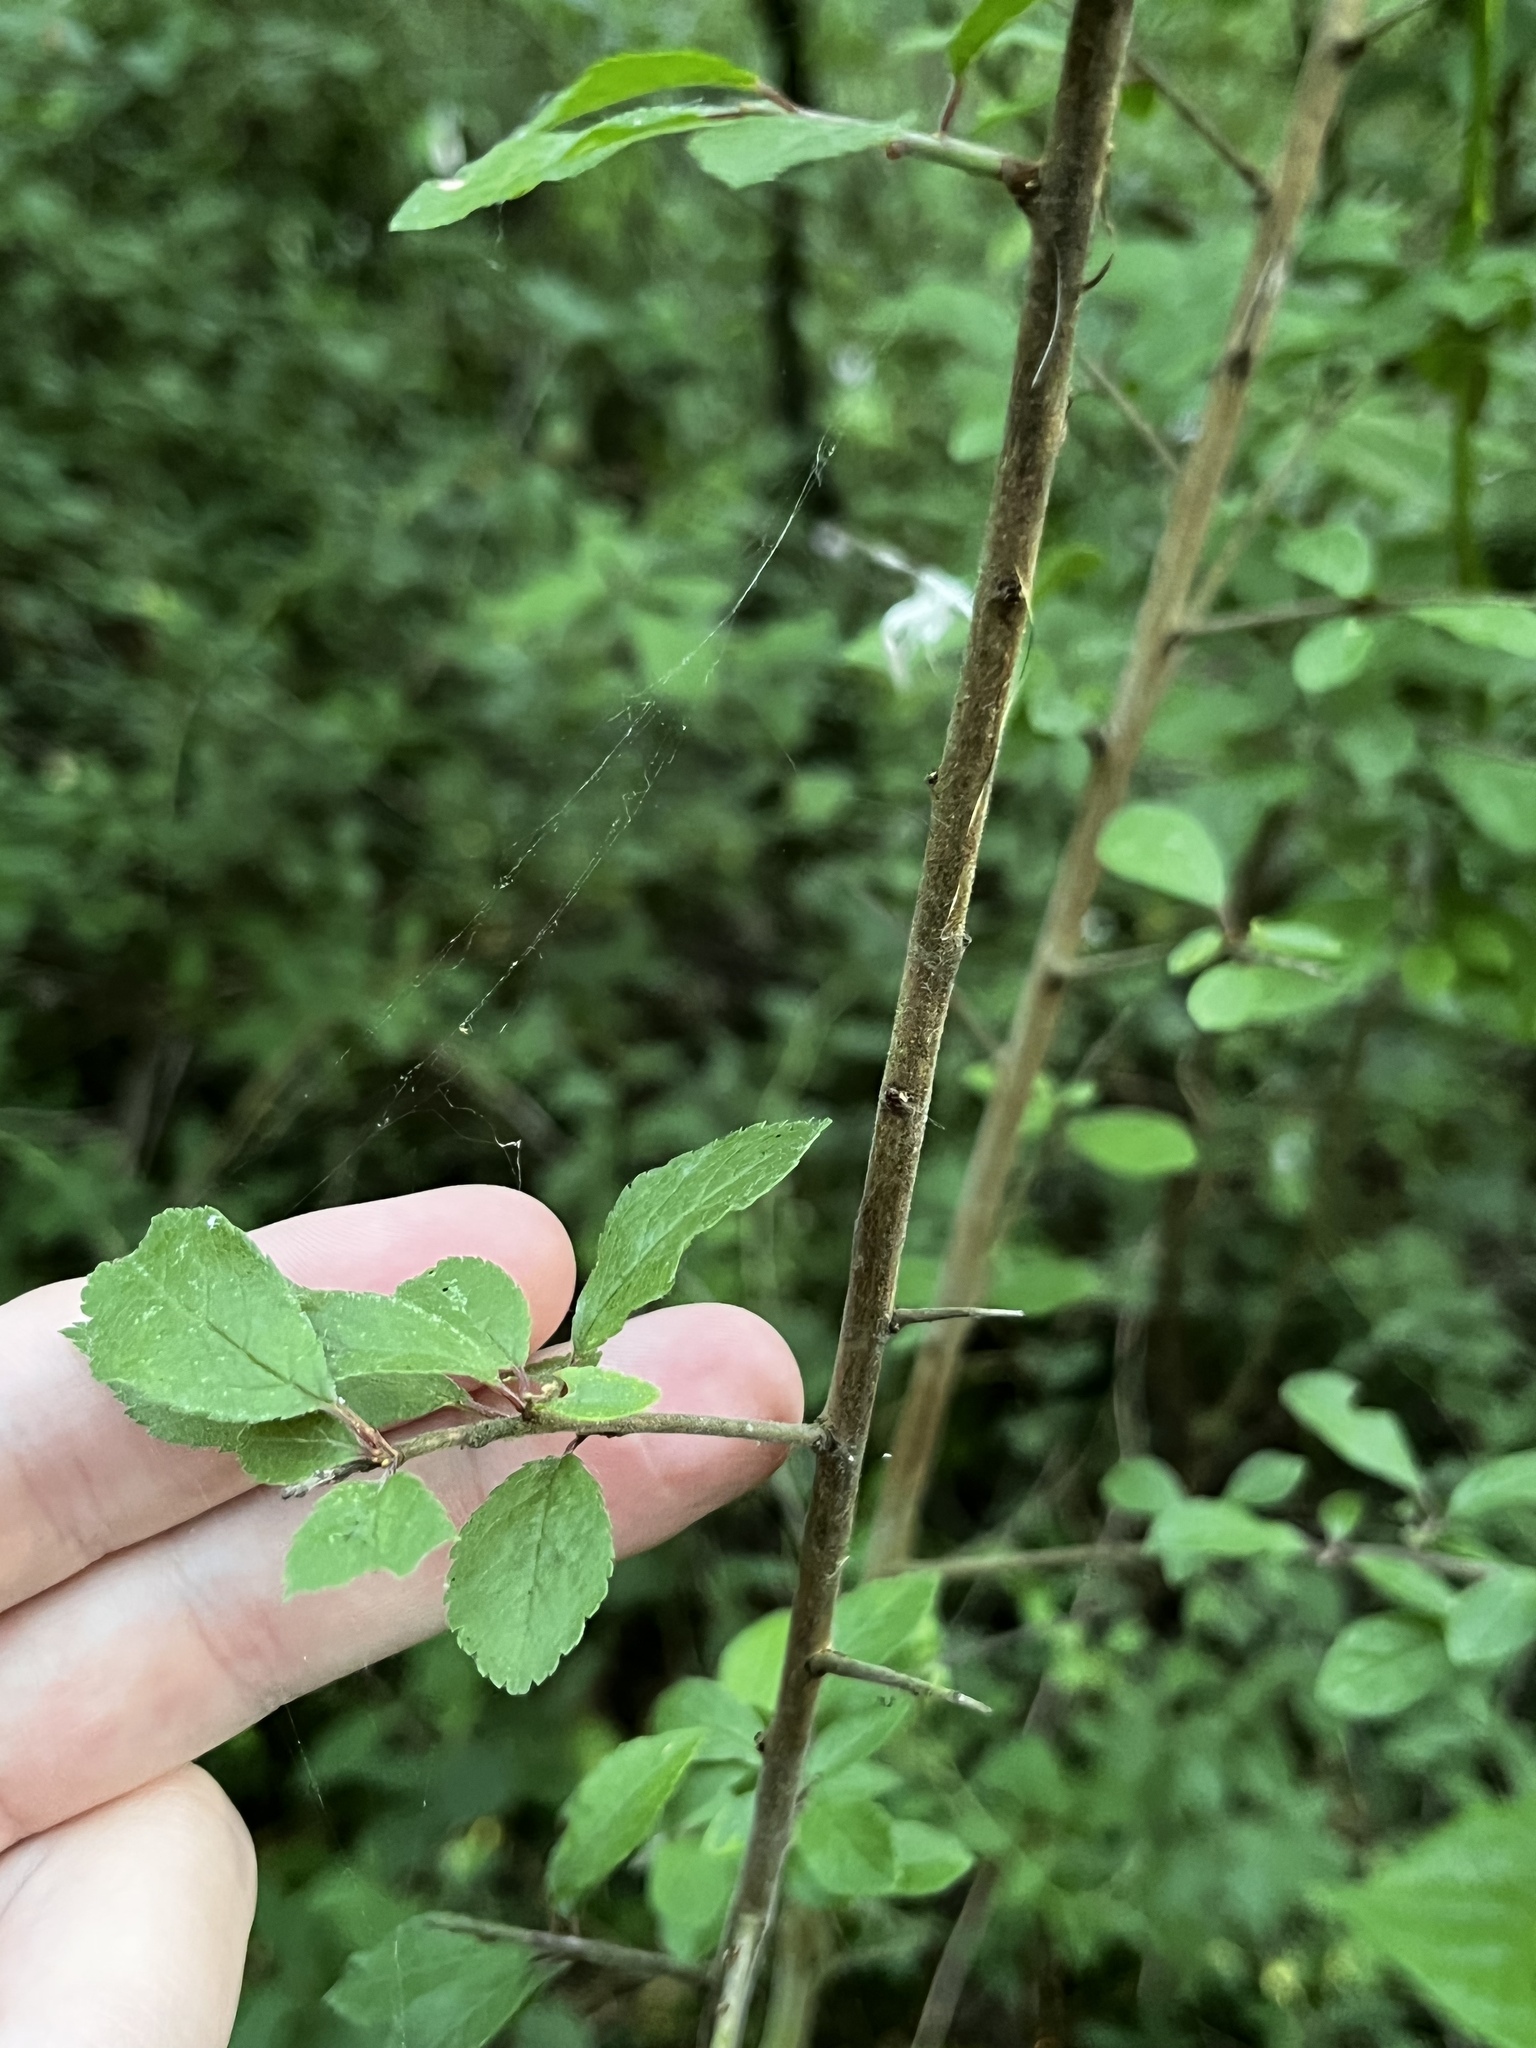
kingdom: Plantae
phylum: Tracheophyta
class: Magnoliopsida
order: Rosales
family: Rosaceae
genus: Prunus
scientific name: Prunus spinosa
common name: Blackthorn
